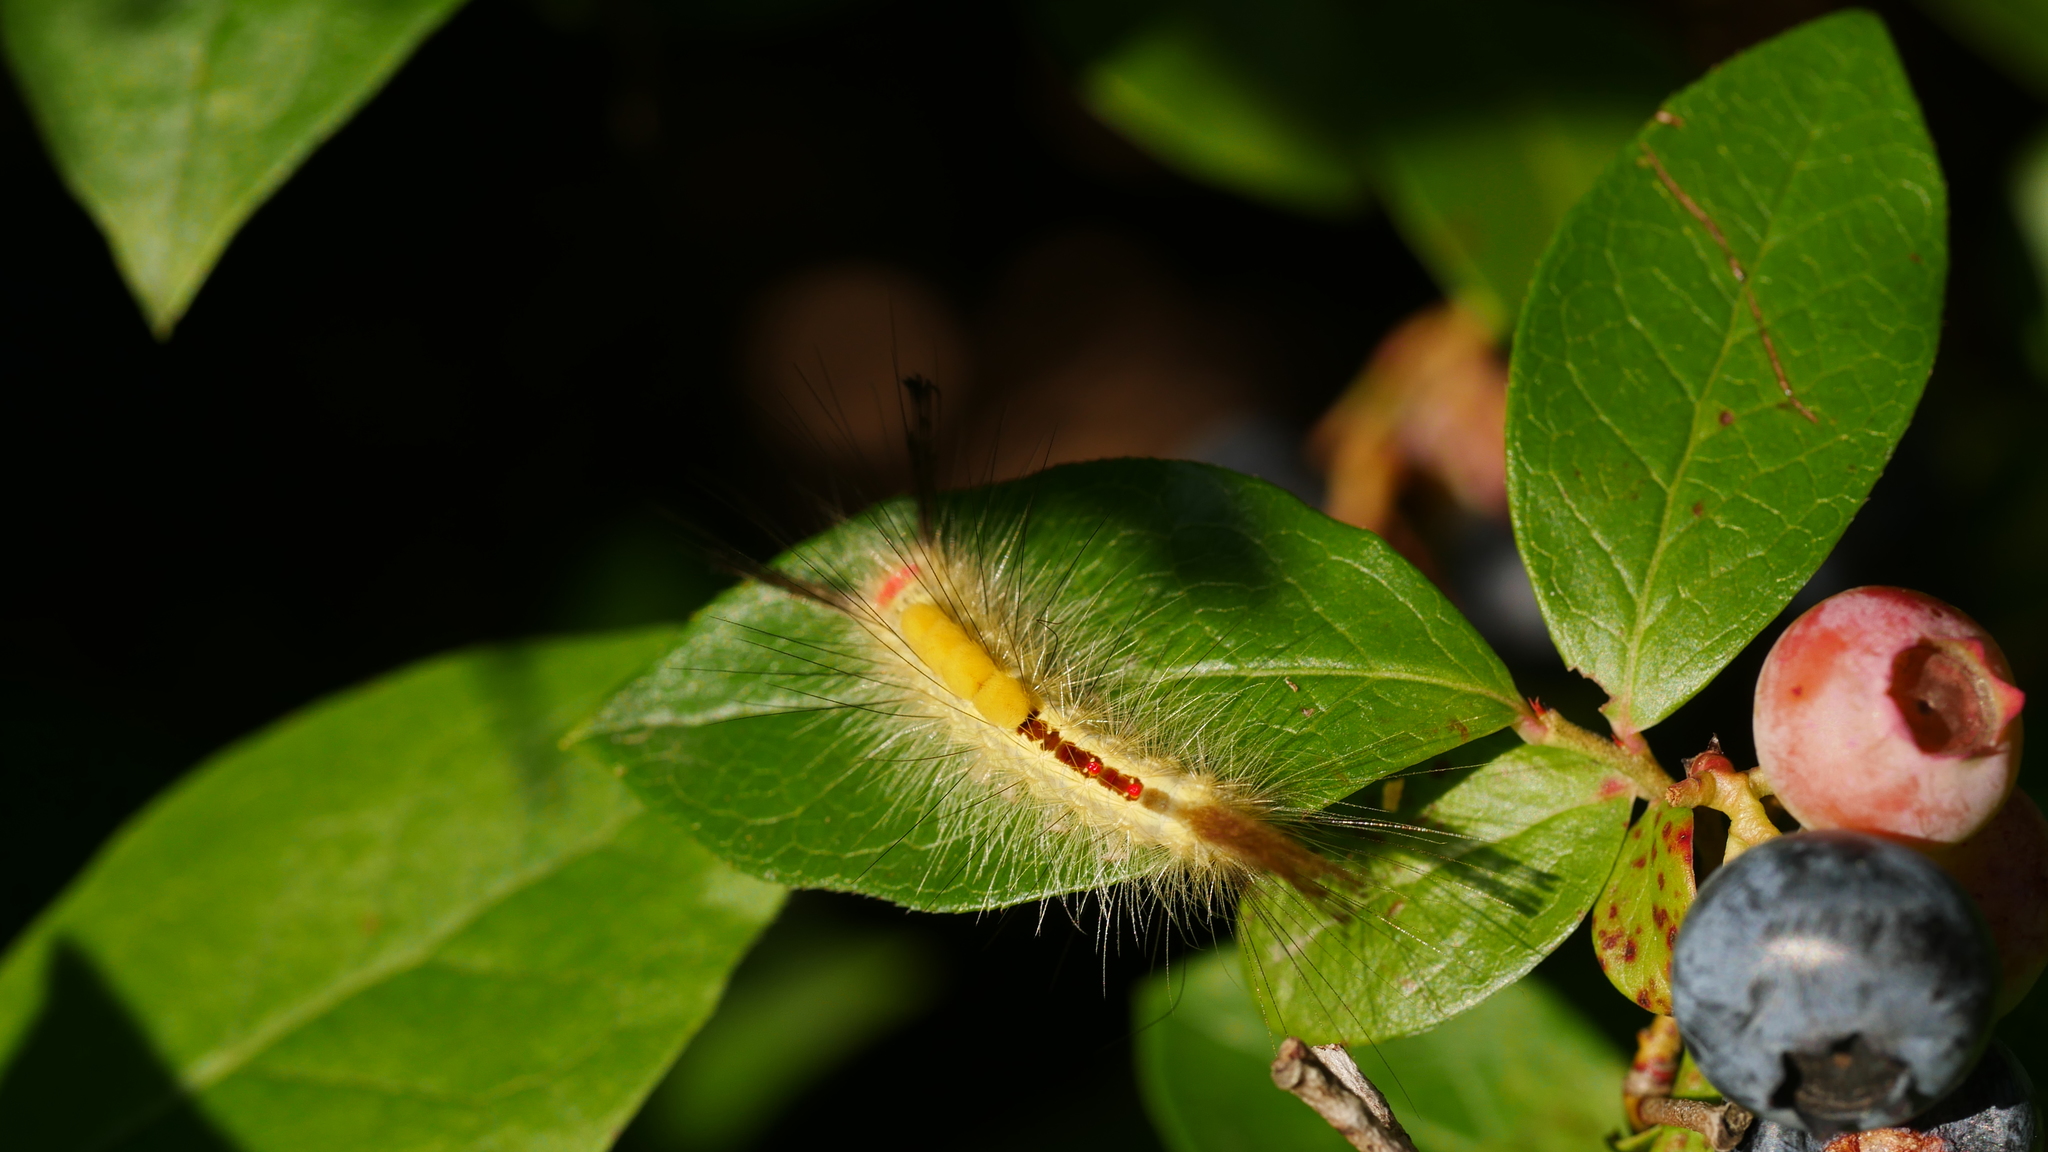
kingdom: Animalia
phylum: Arthropoda
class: Insecta
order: Lepidoptera
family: Erebidae
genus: Orgyia
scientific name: Orgyia leucostigma
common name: White-marked tussock moth
